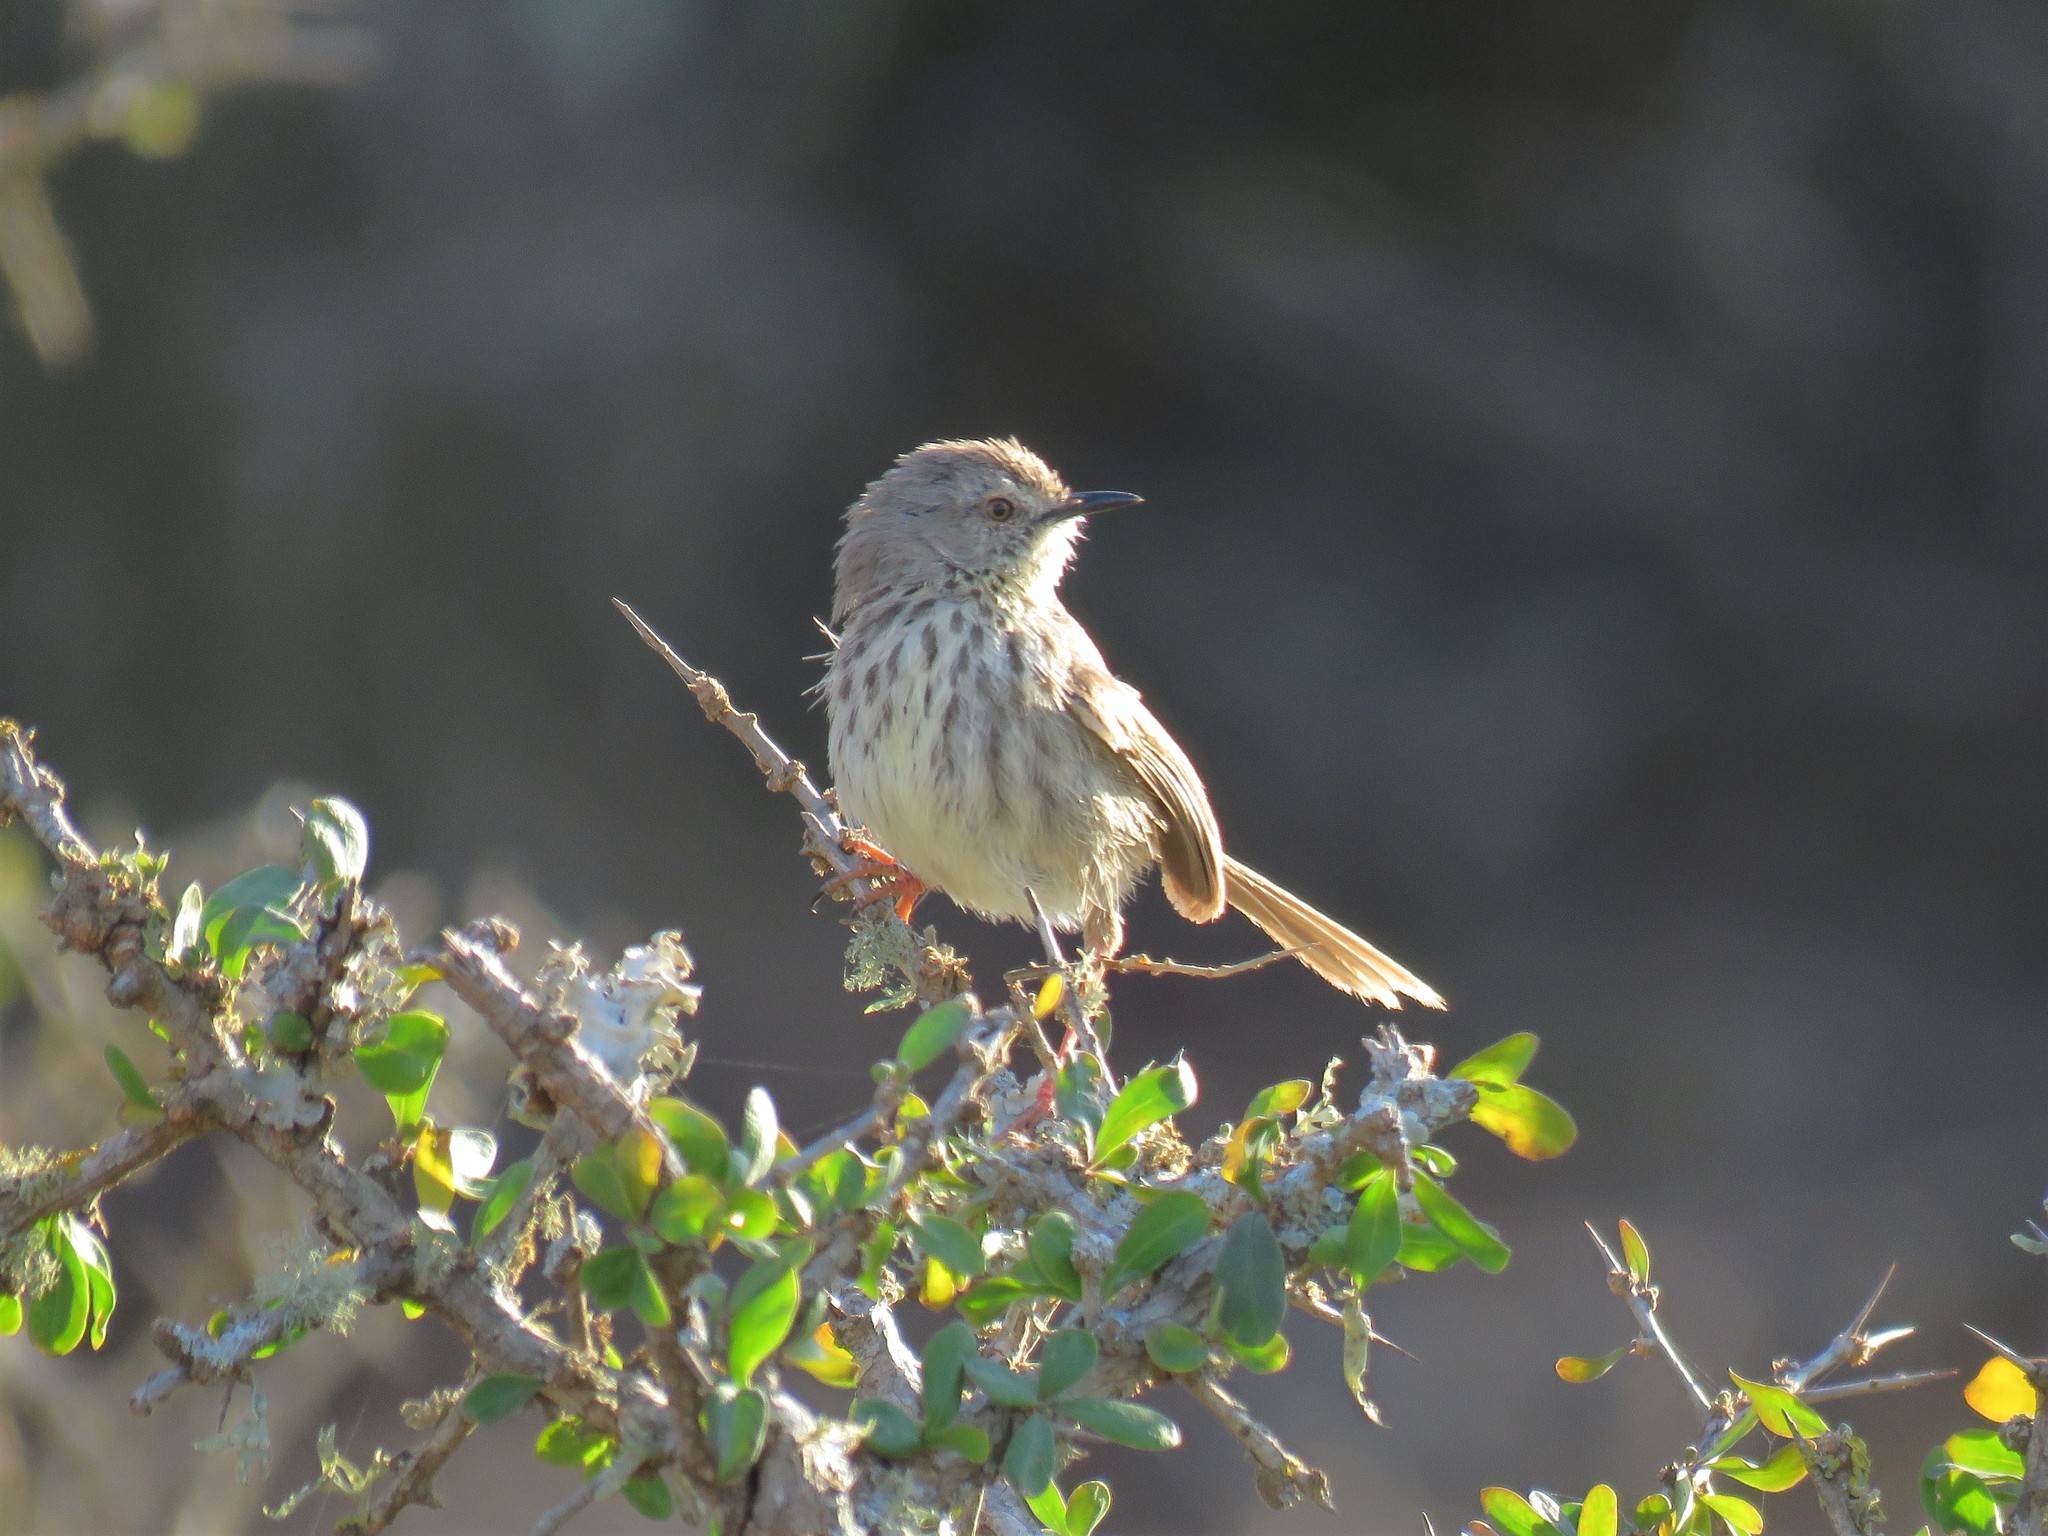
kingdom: Animalia
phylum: Chordata
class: Aves
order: Passeriformes
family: Cisticolidae
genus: Prinia
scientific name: Prinia maculosa
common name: Karoo prinia
